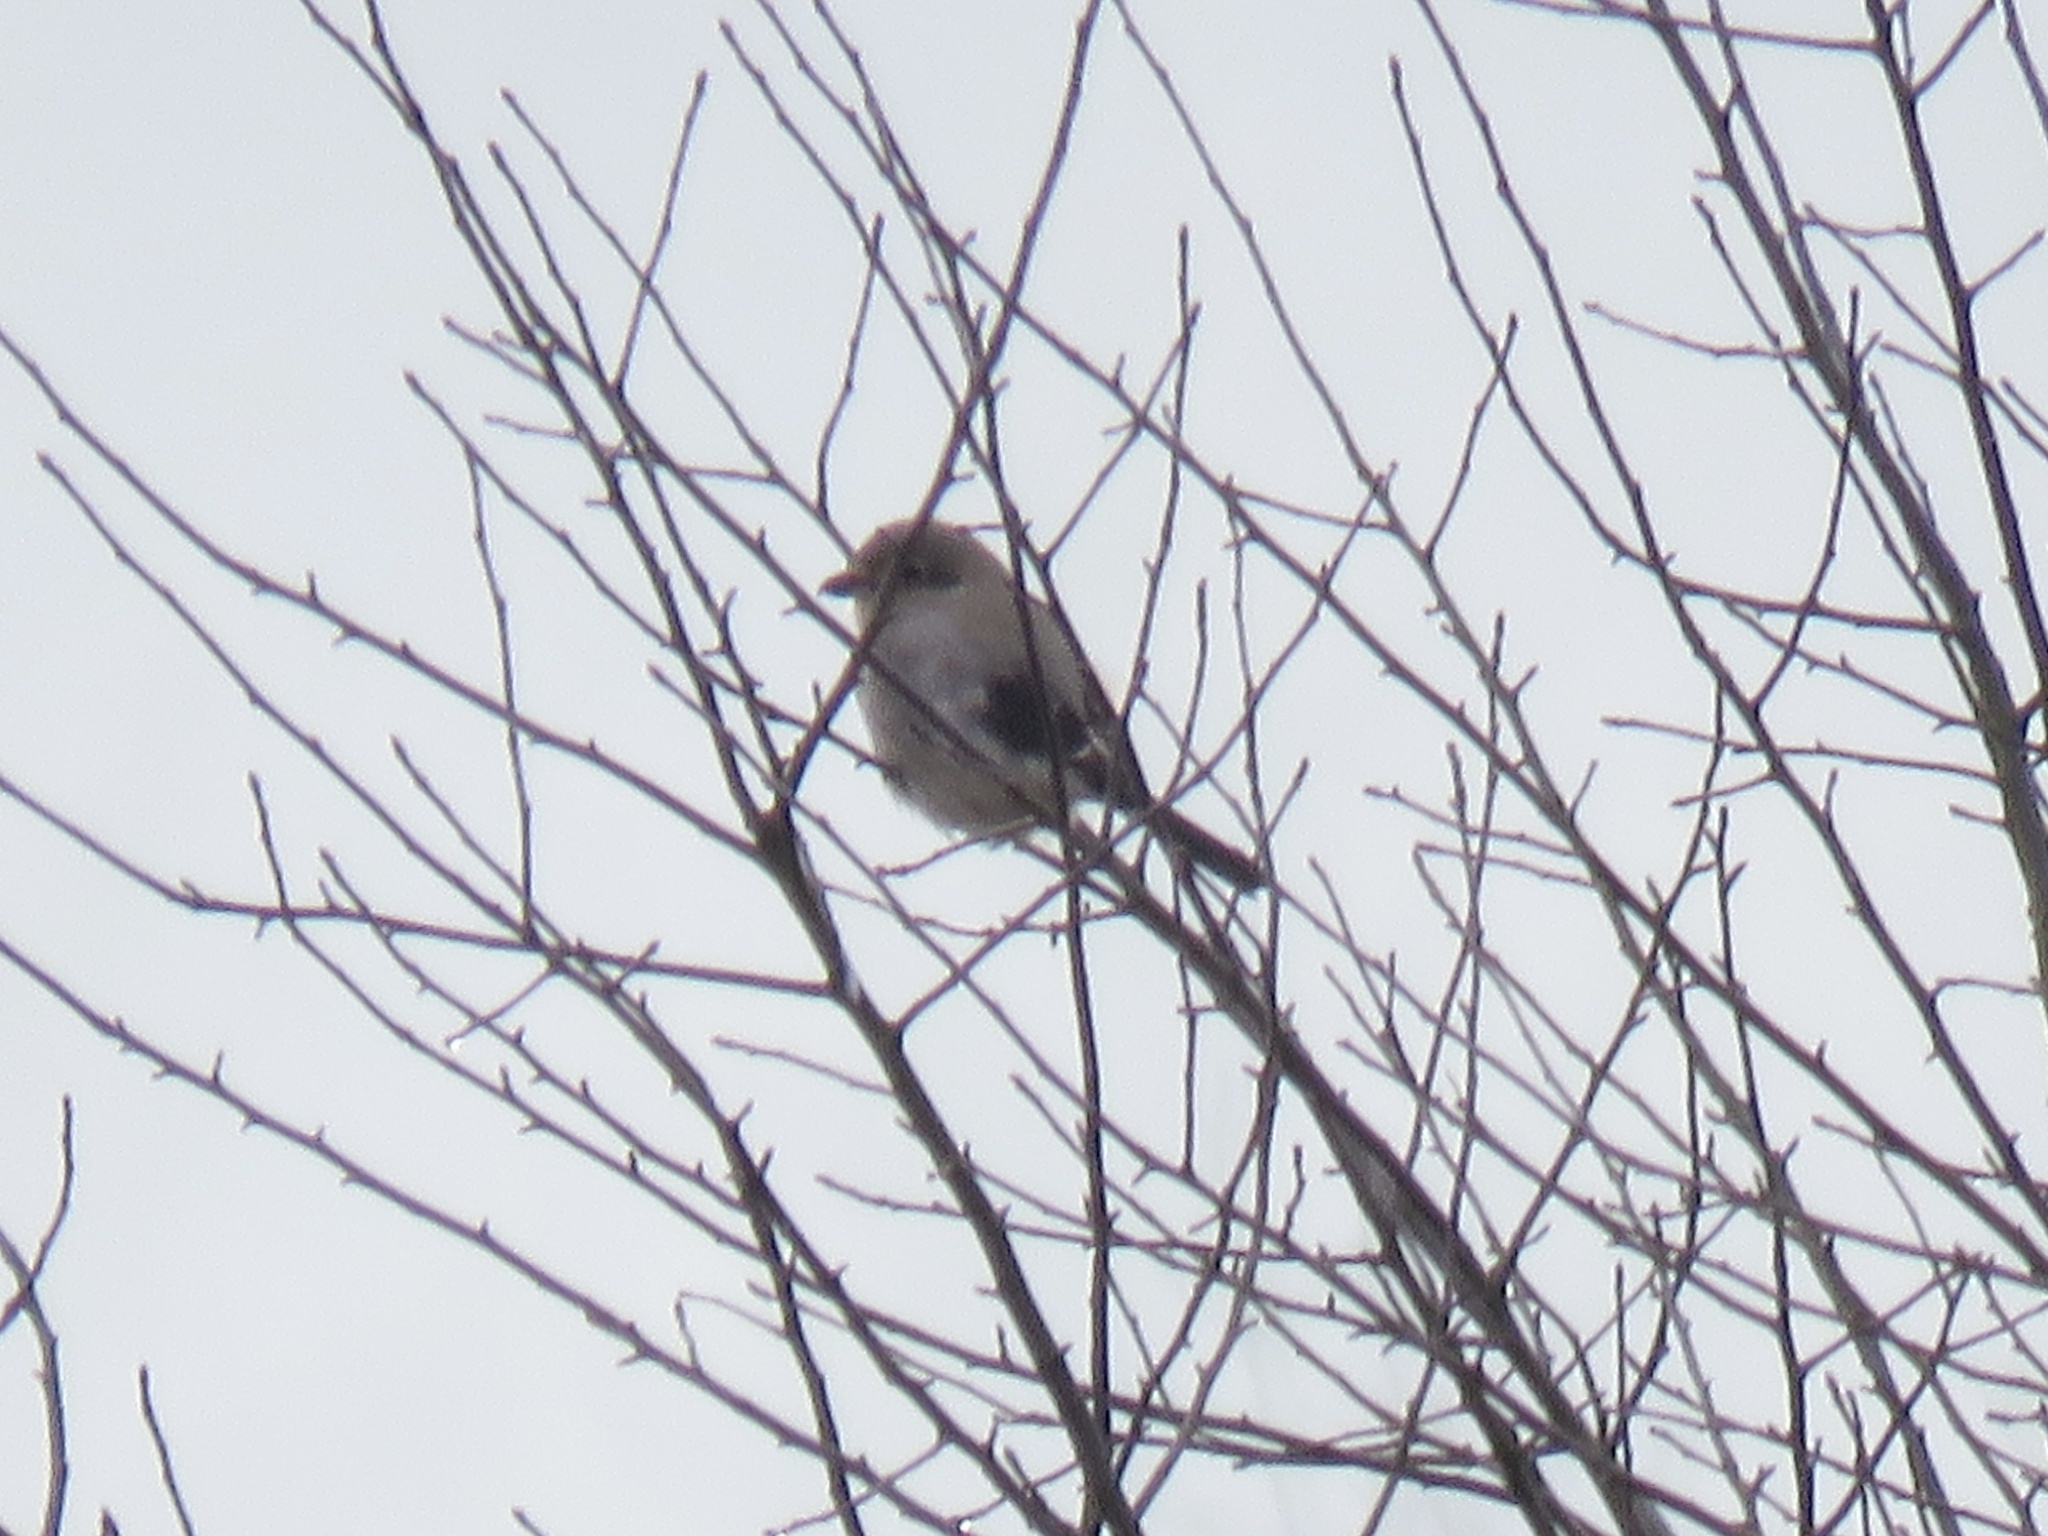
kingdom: Animalia
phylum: Chordata
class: Aves
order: Passeriformes
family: Laniidae
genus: Lanius
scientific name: Lanius borealis
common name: Northern shrike
